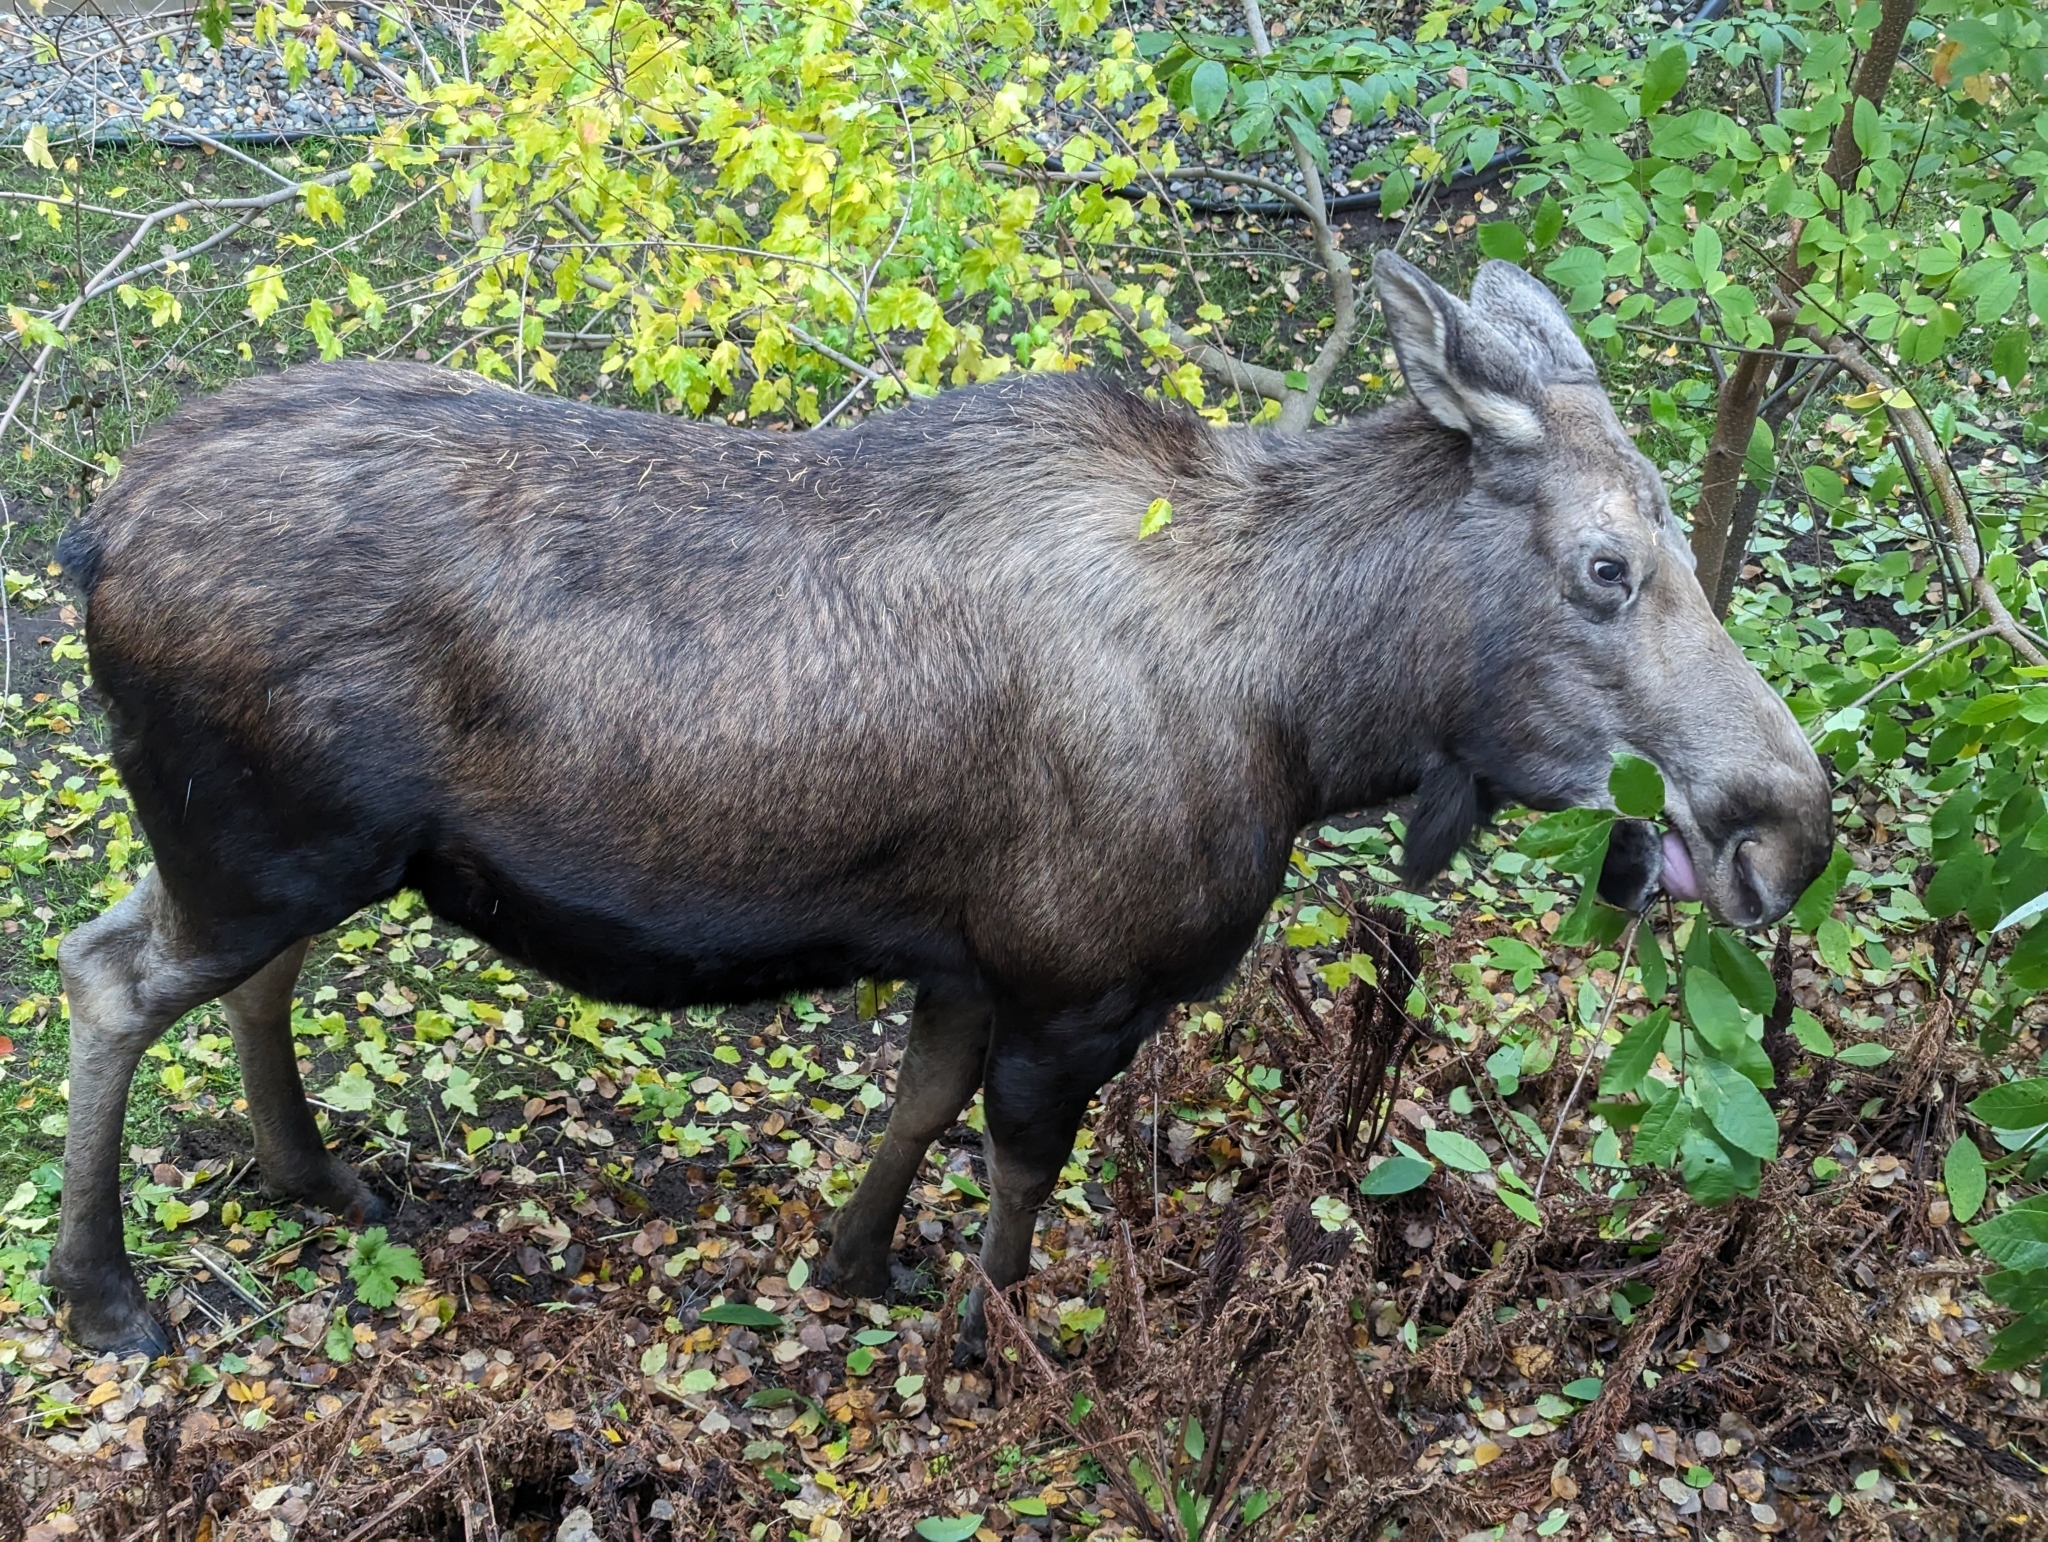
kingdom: Animalia
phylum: Chordata
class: Mammalia
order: Artiodactyla
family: Cervidae
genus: Alces
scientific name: Alces alces
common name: Moose
